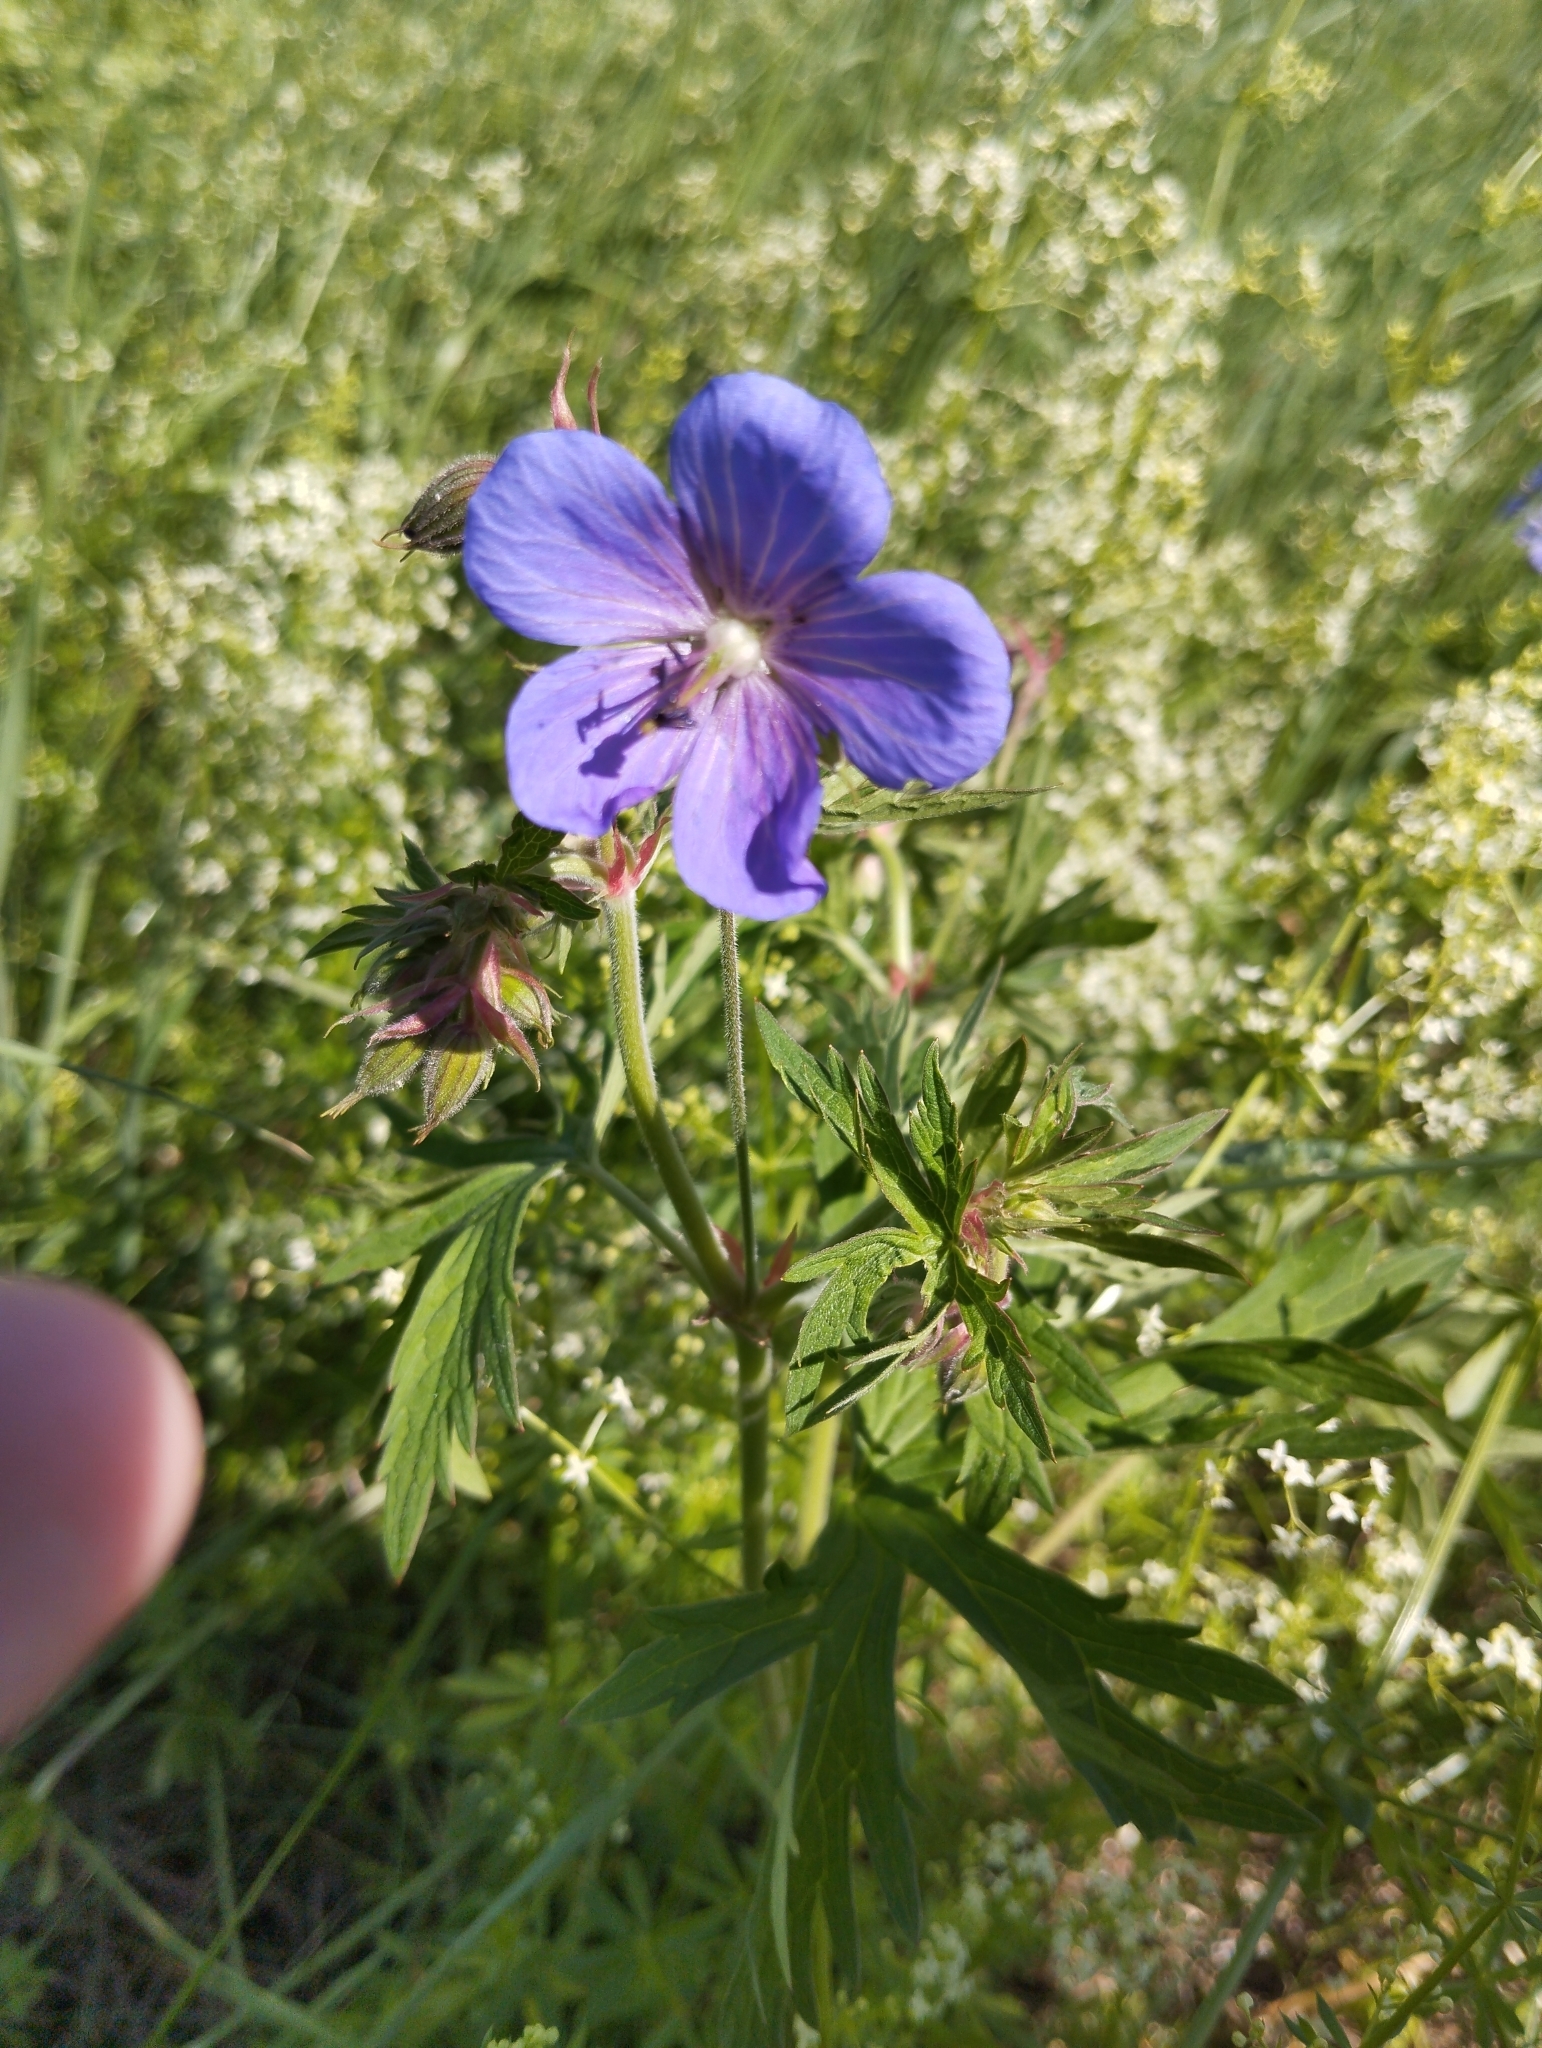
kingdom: Plantae
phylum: Tracheophyta
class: Magnoliopsida
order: Geraniales
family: Geraniaceae
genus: Geranium
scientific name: Geranium pratense
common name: Meadow crane's-bill
